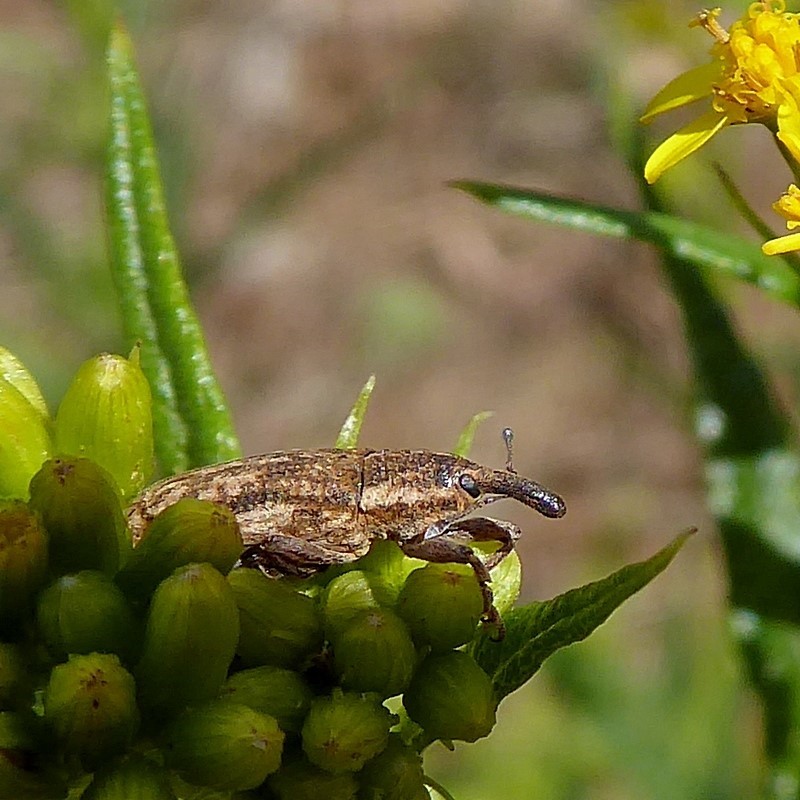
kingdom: Animalia
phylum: Arthropoda
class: Insecta
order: Coleoptera
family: Curculionidae
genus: Lixus
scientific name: Lixus tasmanicus
